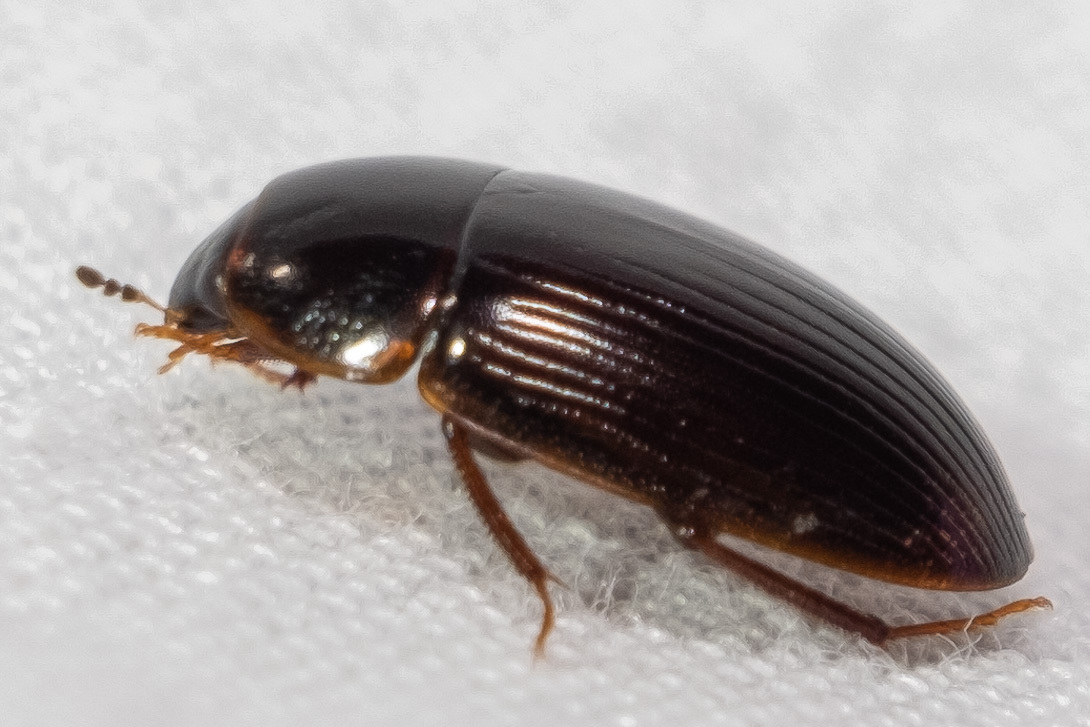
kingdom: Animalia
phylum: Arthropoda
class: Insecta
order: Coleoptera
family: Hydrophilidae
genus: Cymbiodyta
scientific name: Cymbiodyta bifida
